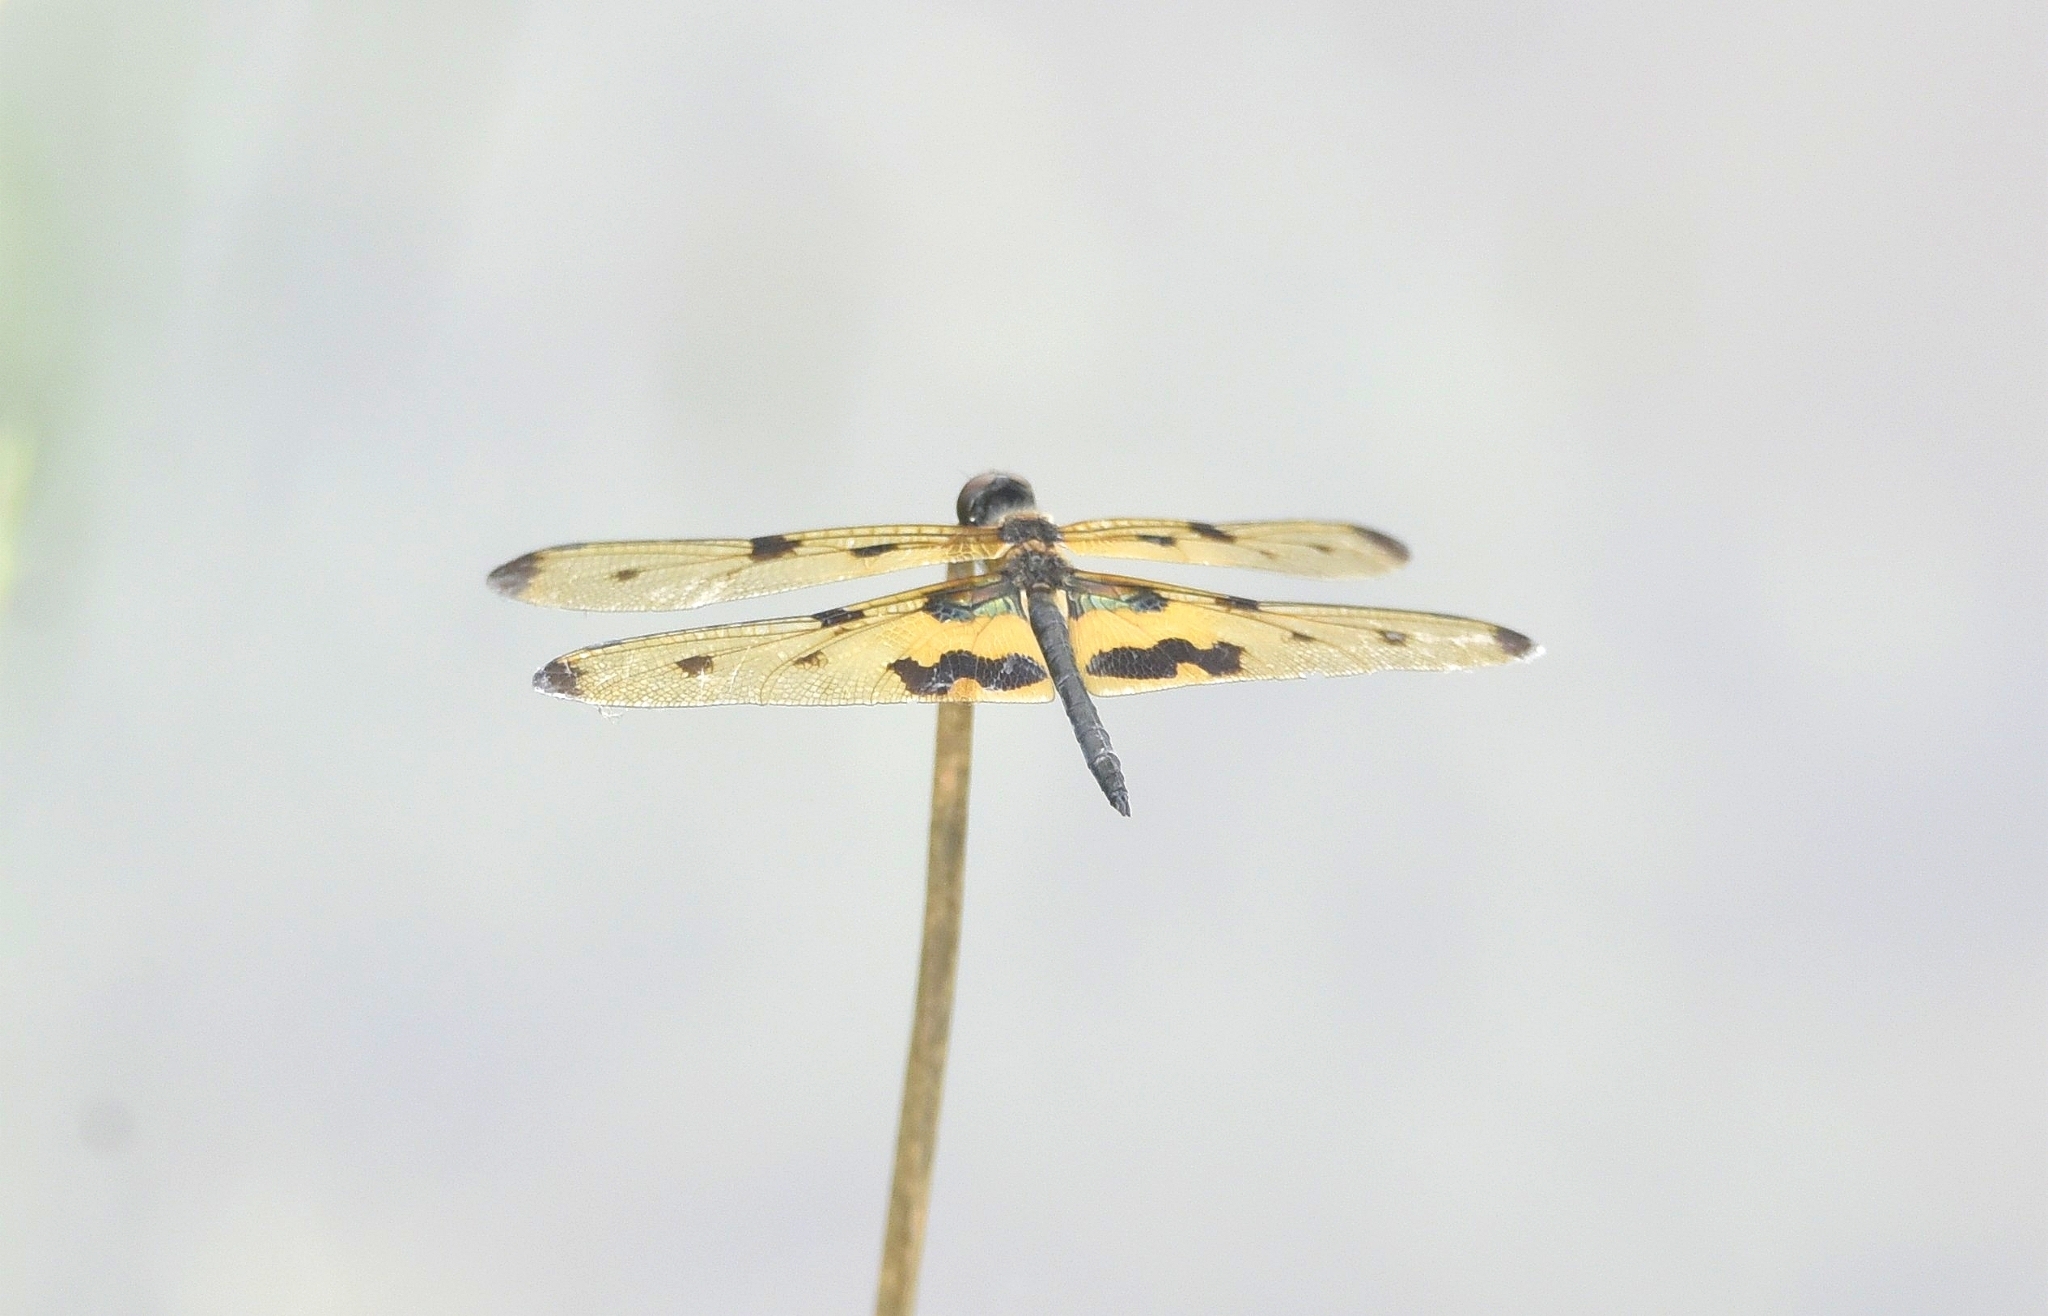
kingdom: Animalia
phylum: Arthropoda
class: Insecta
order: Odonata
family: Libellulidae
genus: Rhyothemis
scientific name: Rhyothemis variegata
